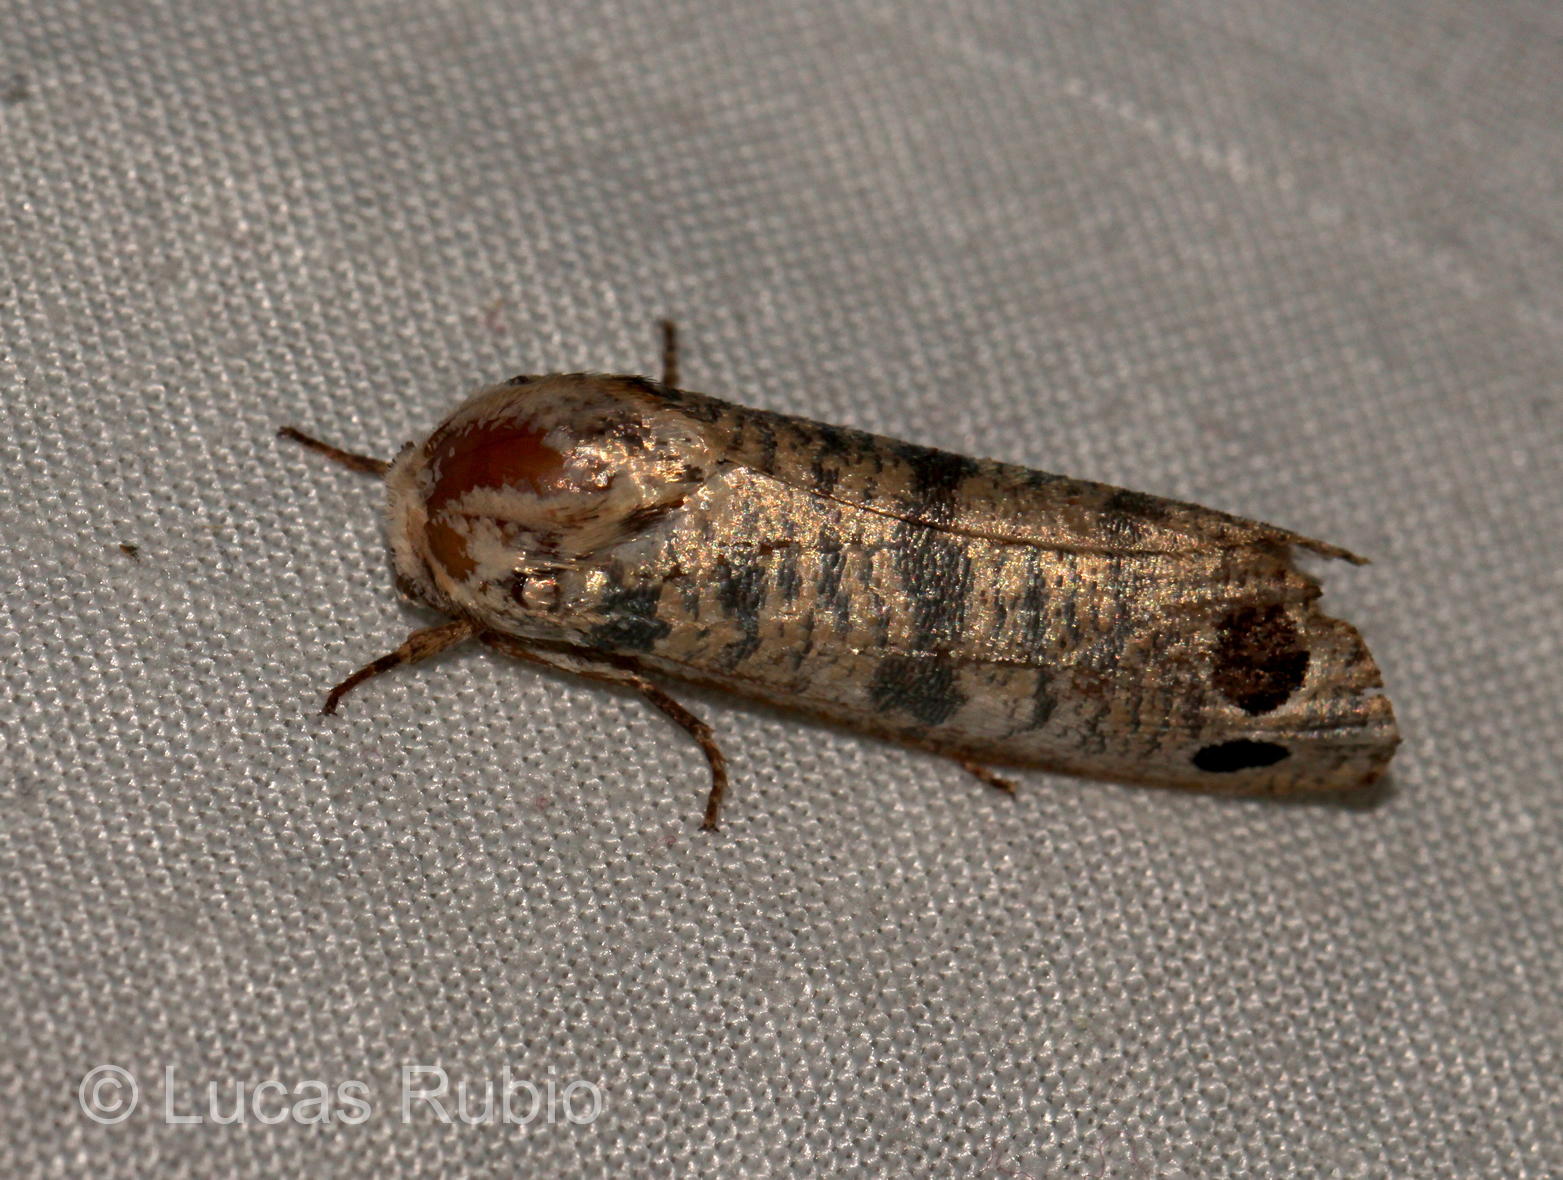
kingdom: Animalia
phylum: Arthropoda
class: Insecta
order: Lepidoptera
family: Dudgeoneidae
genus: Biocellata
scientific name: Biocellata praeclara
